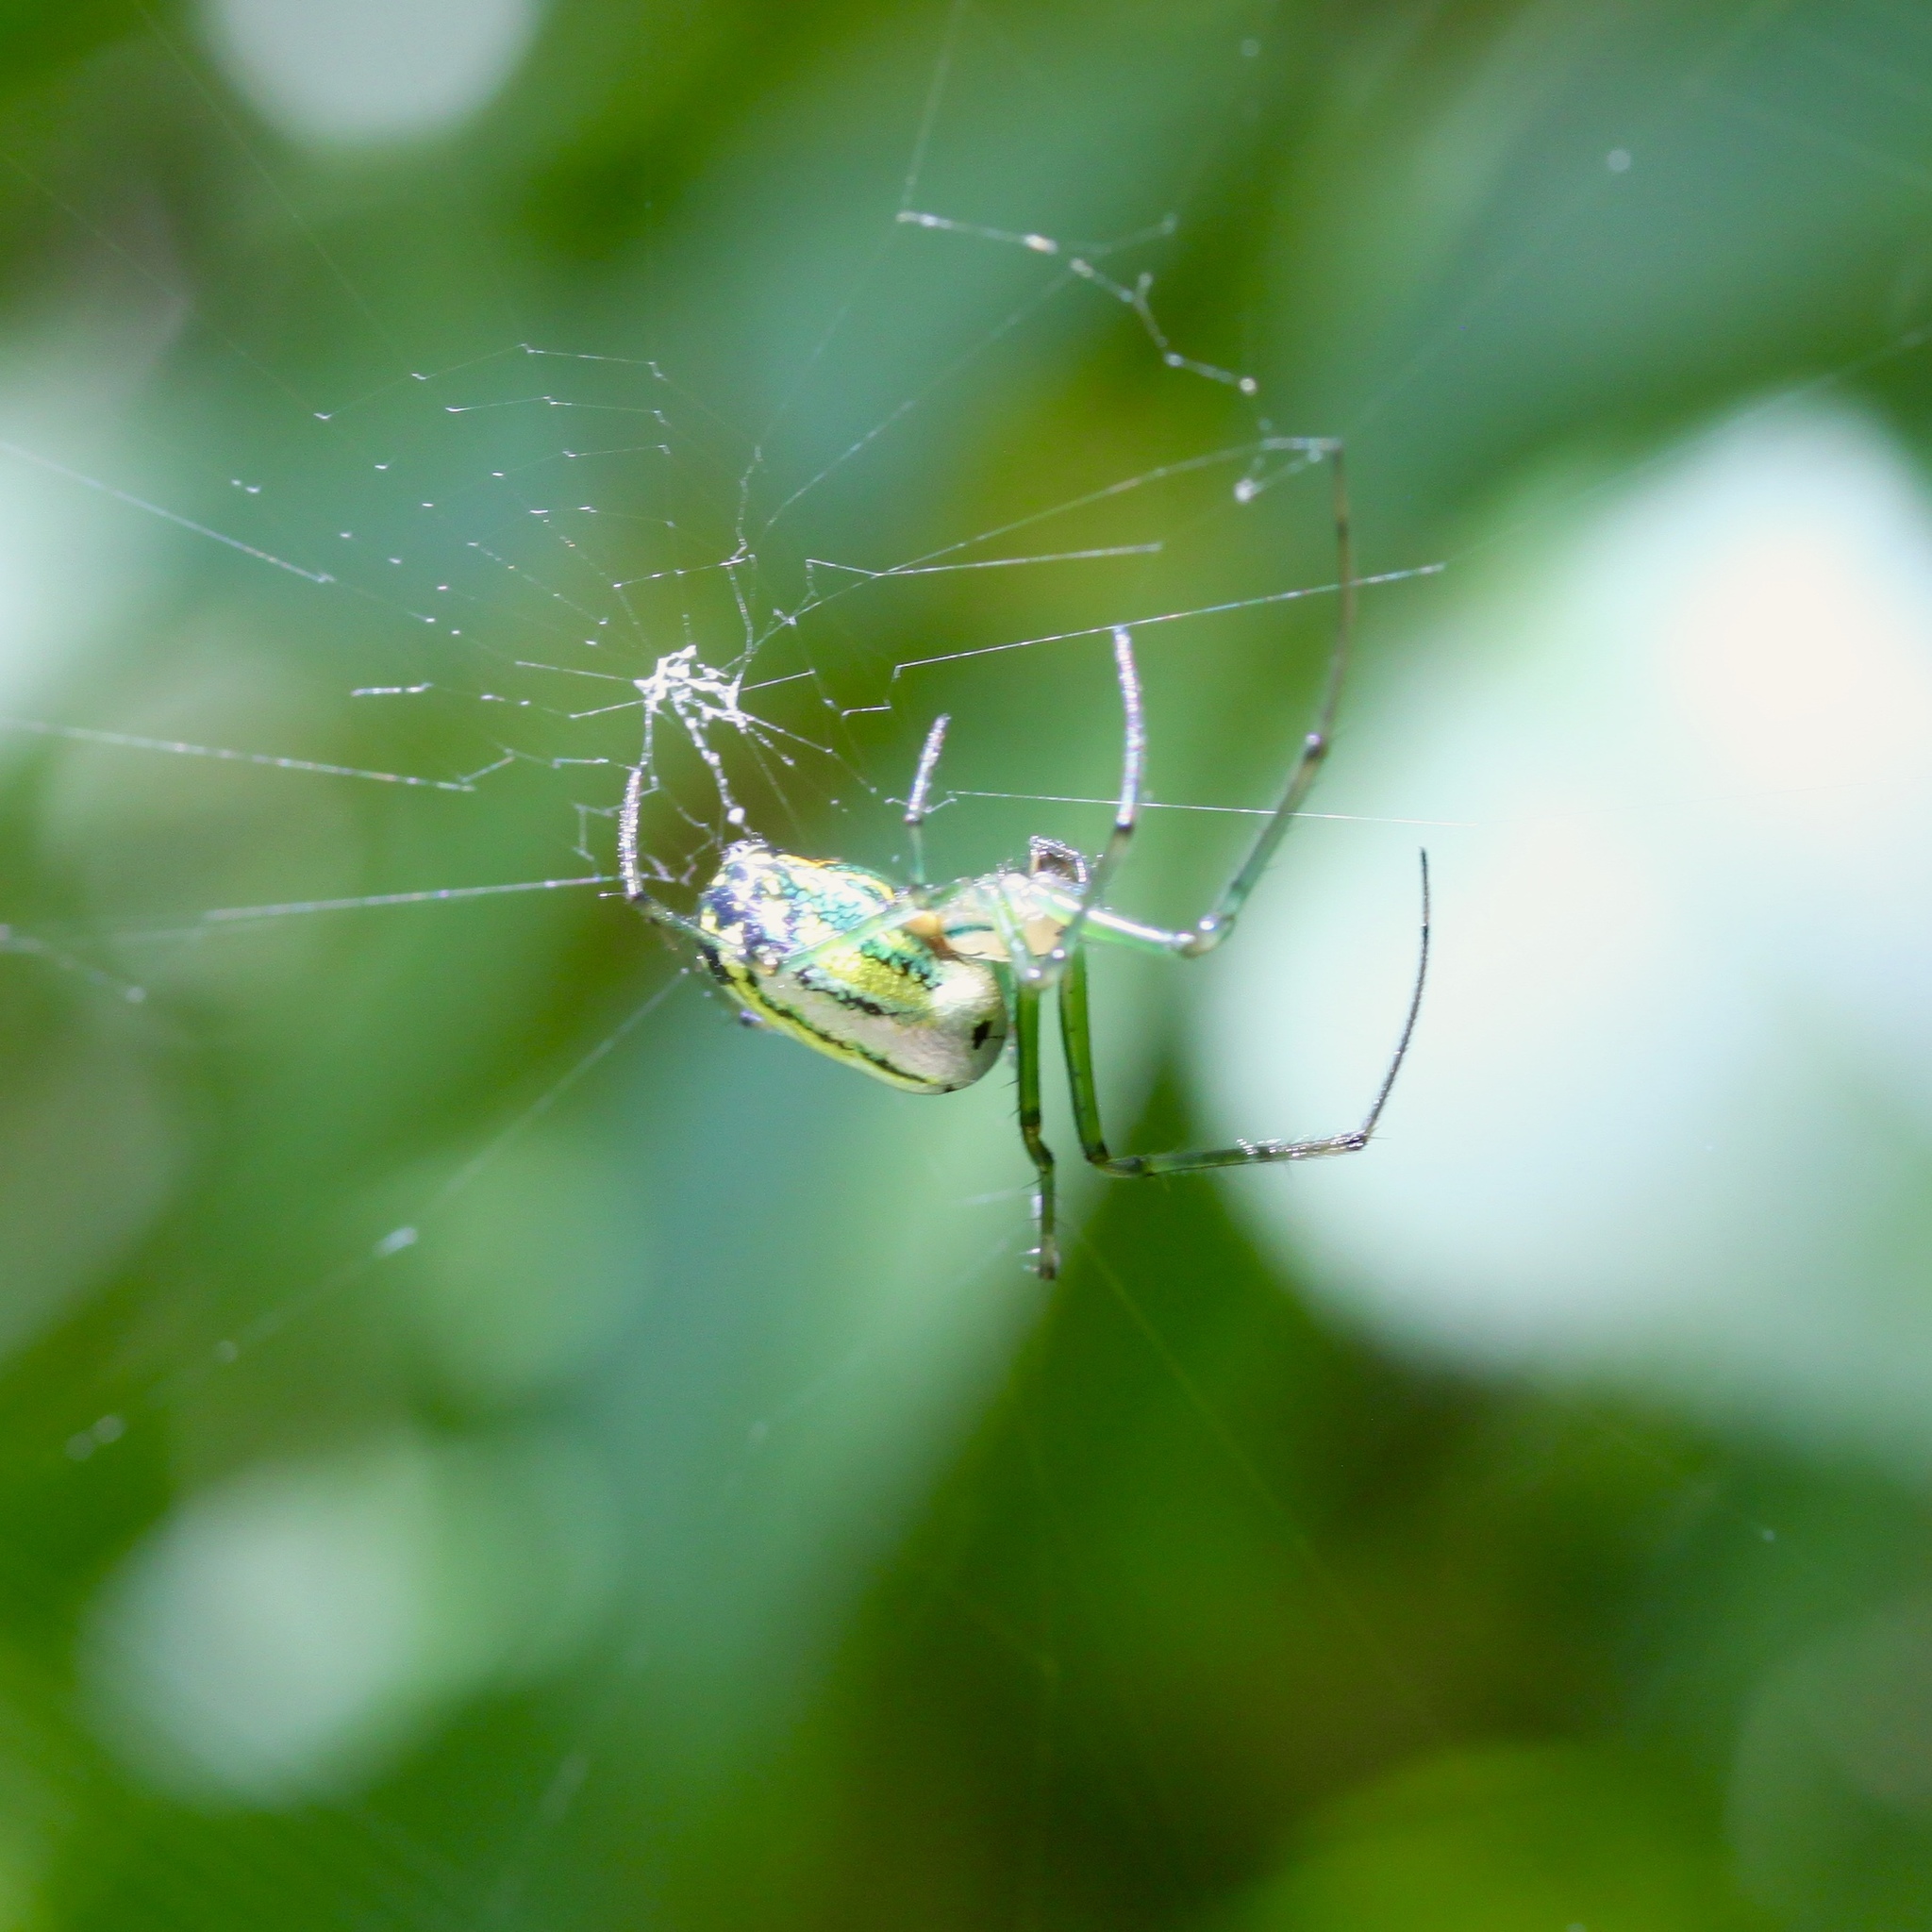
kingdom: Animalia
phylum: Arthropoda
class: Arachnida
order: Araneae
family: Tetragnathidae
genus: Leucauge
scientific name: Leucauge venusta
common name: Longjawed orb weavers
